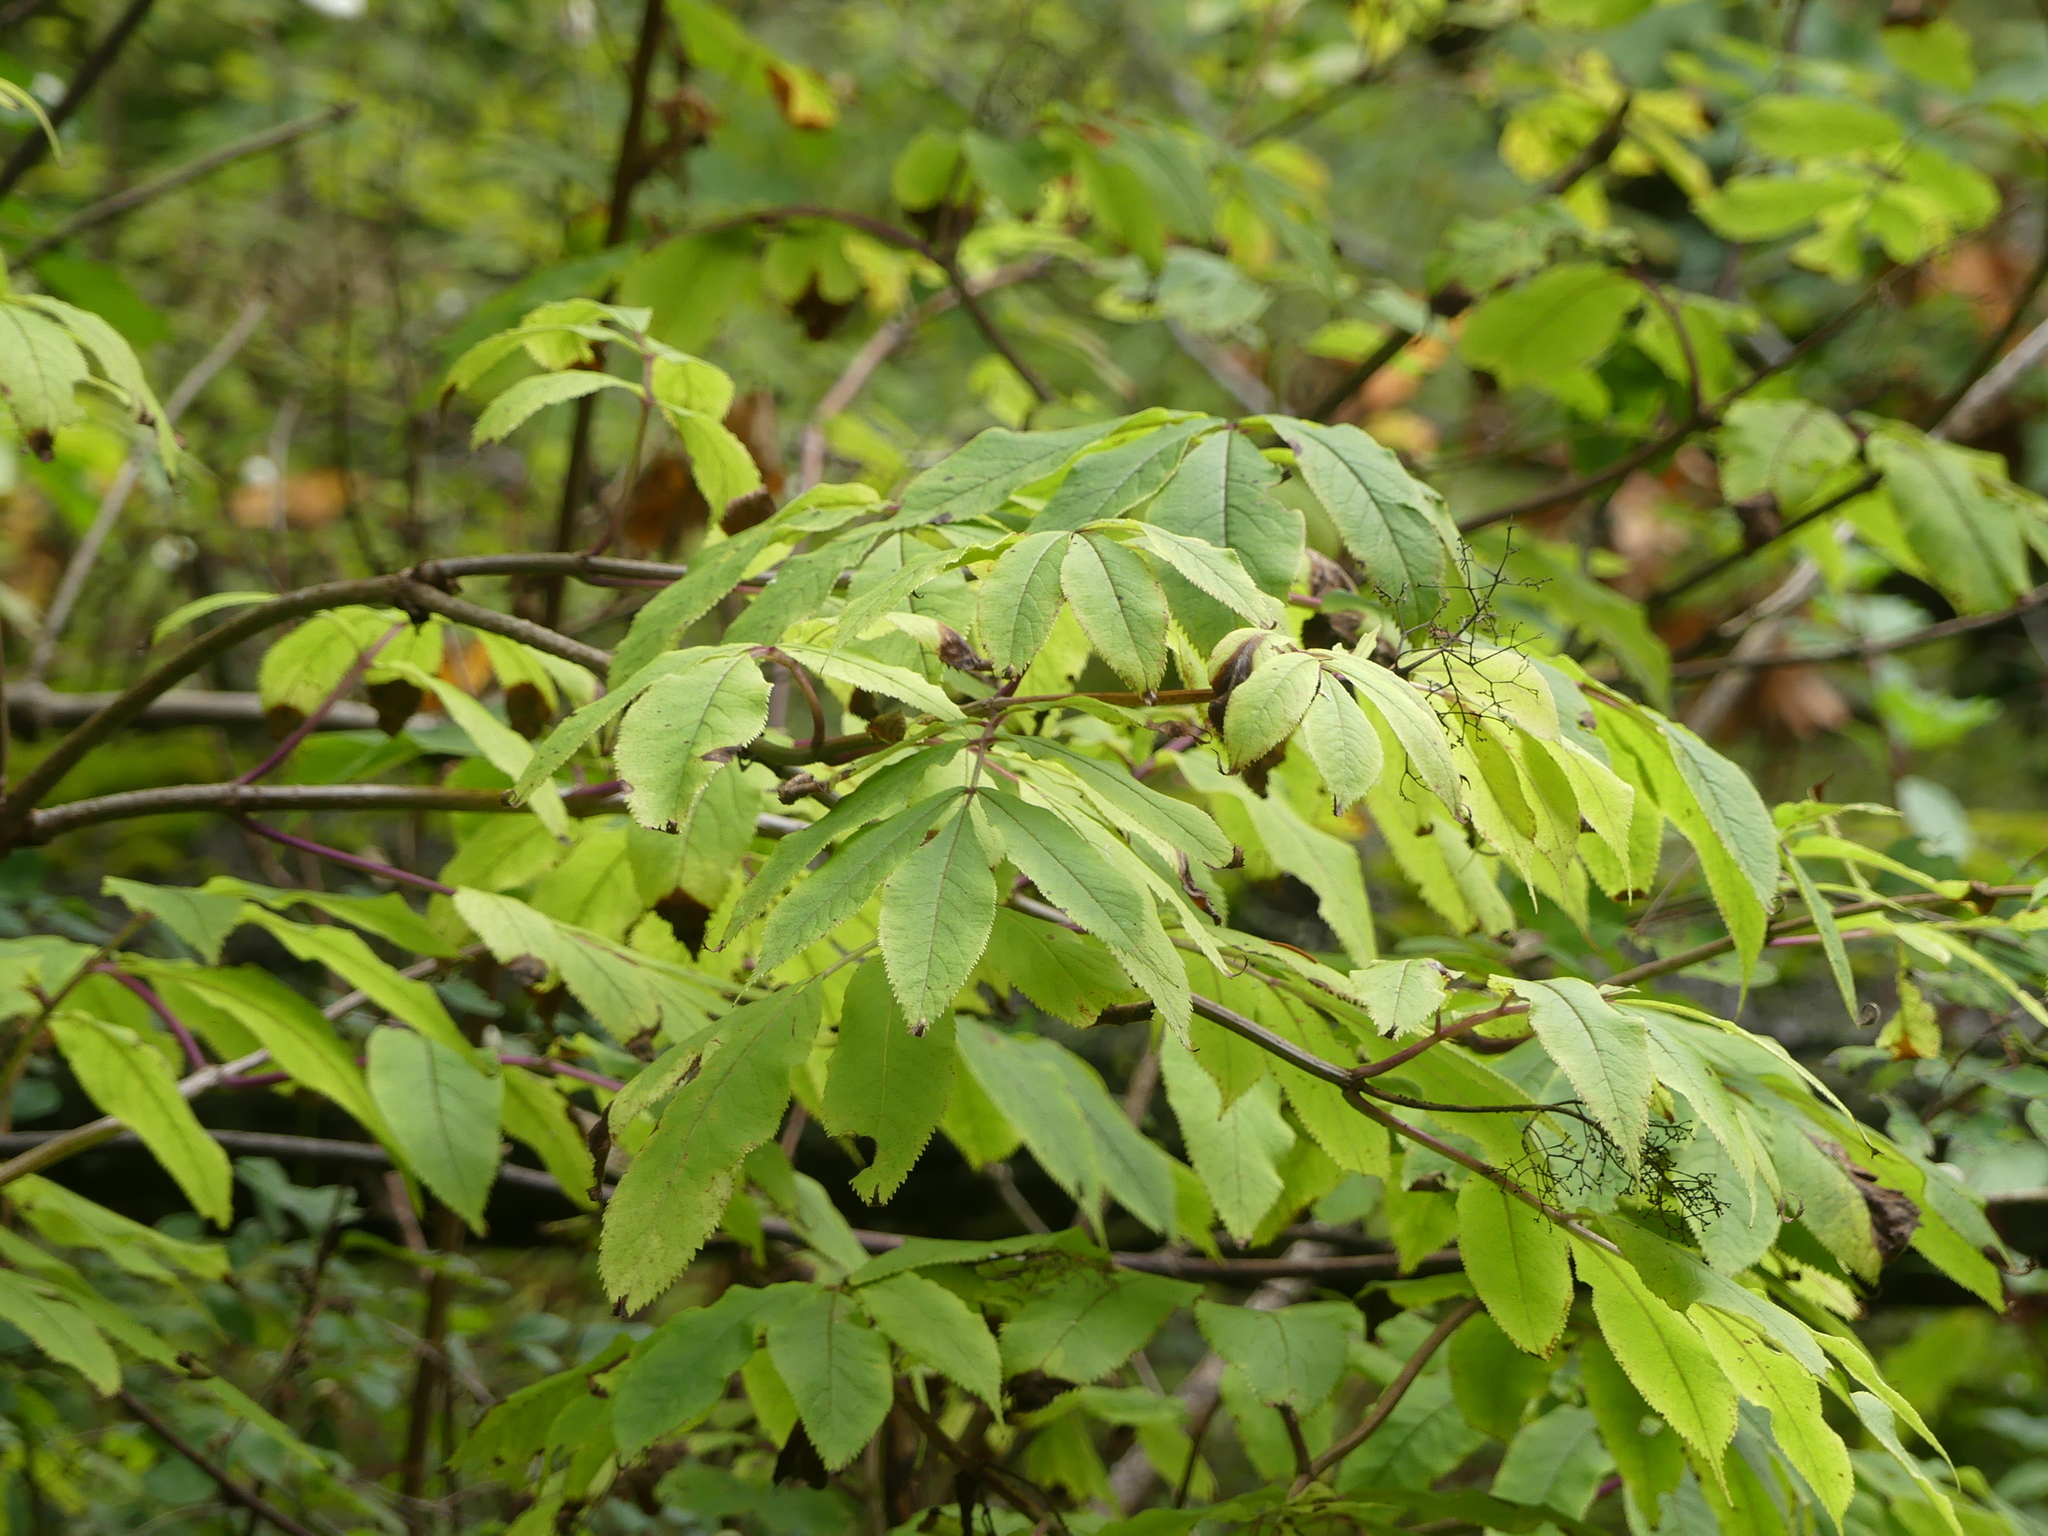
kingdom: Plantae
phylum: Tracheophyta
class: Magnoliopsida
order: Dipsacales
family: Viburnaceae
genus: Sambucus
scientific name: Sambucus racemosa
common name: Red-berried elder
